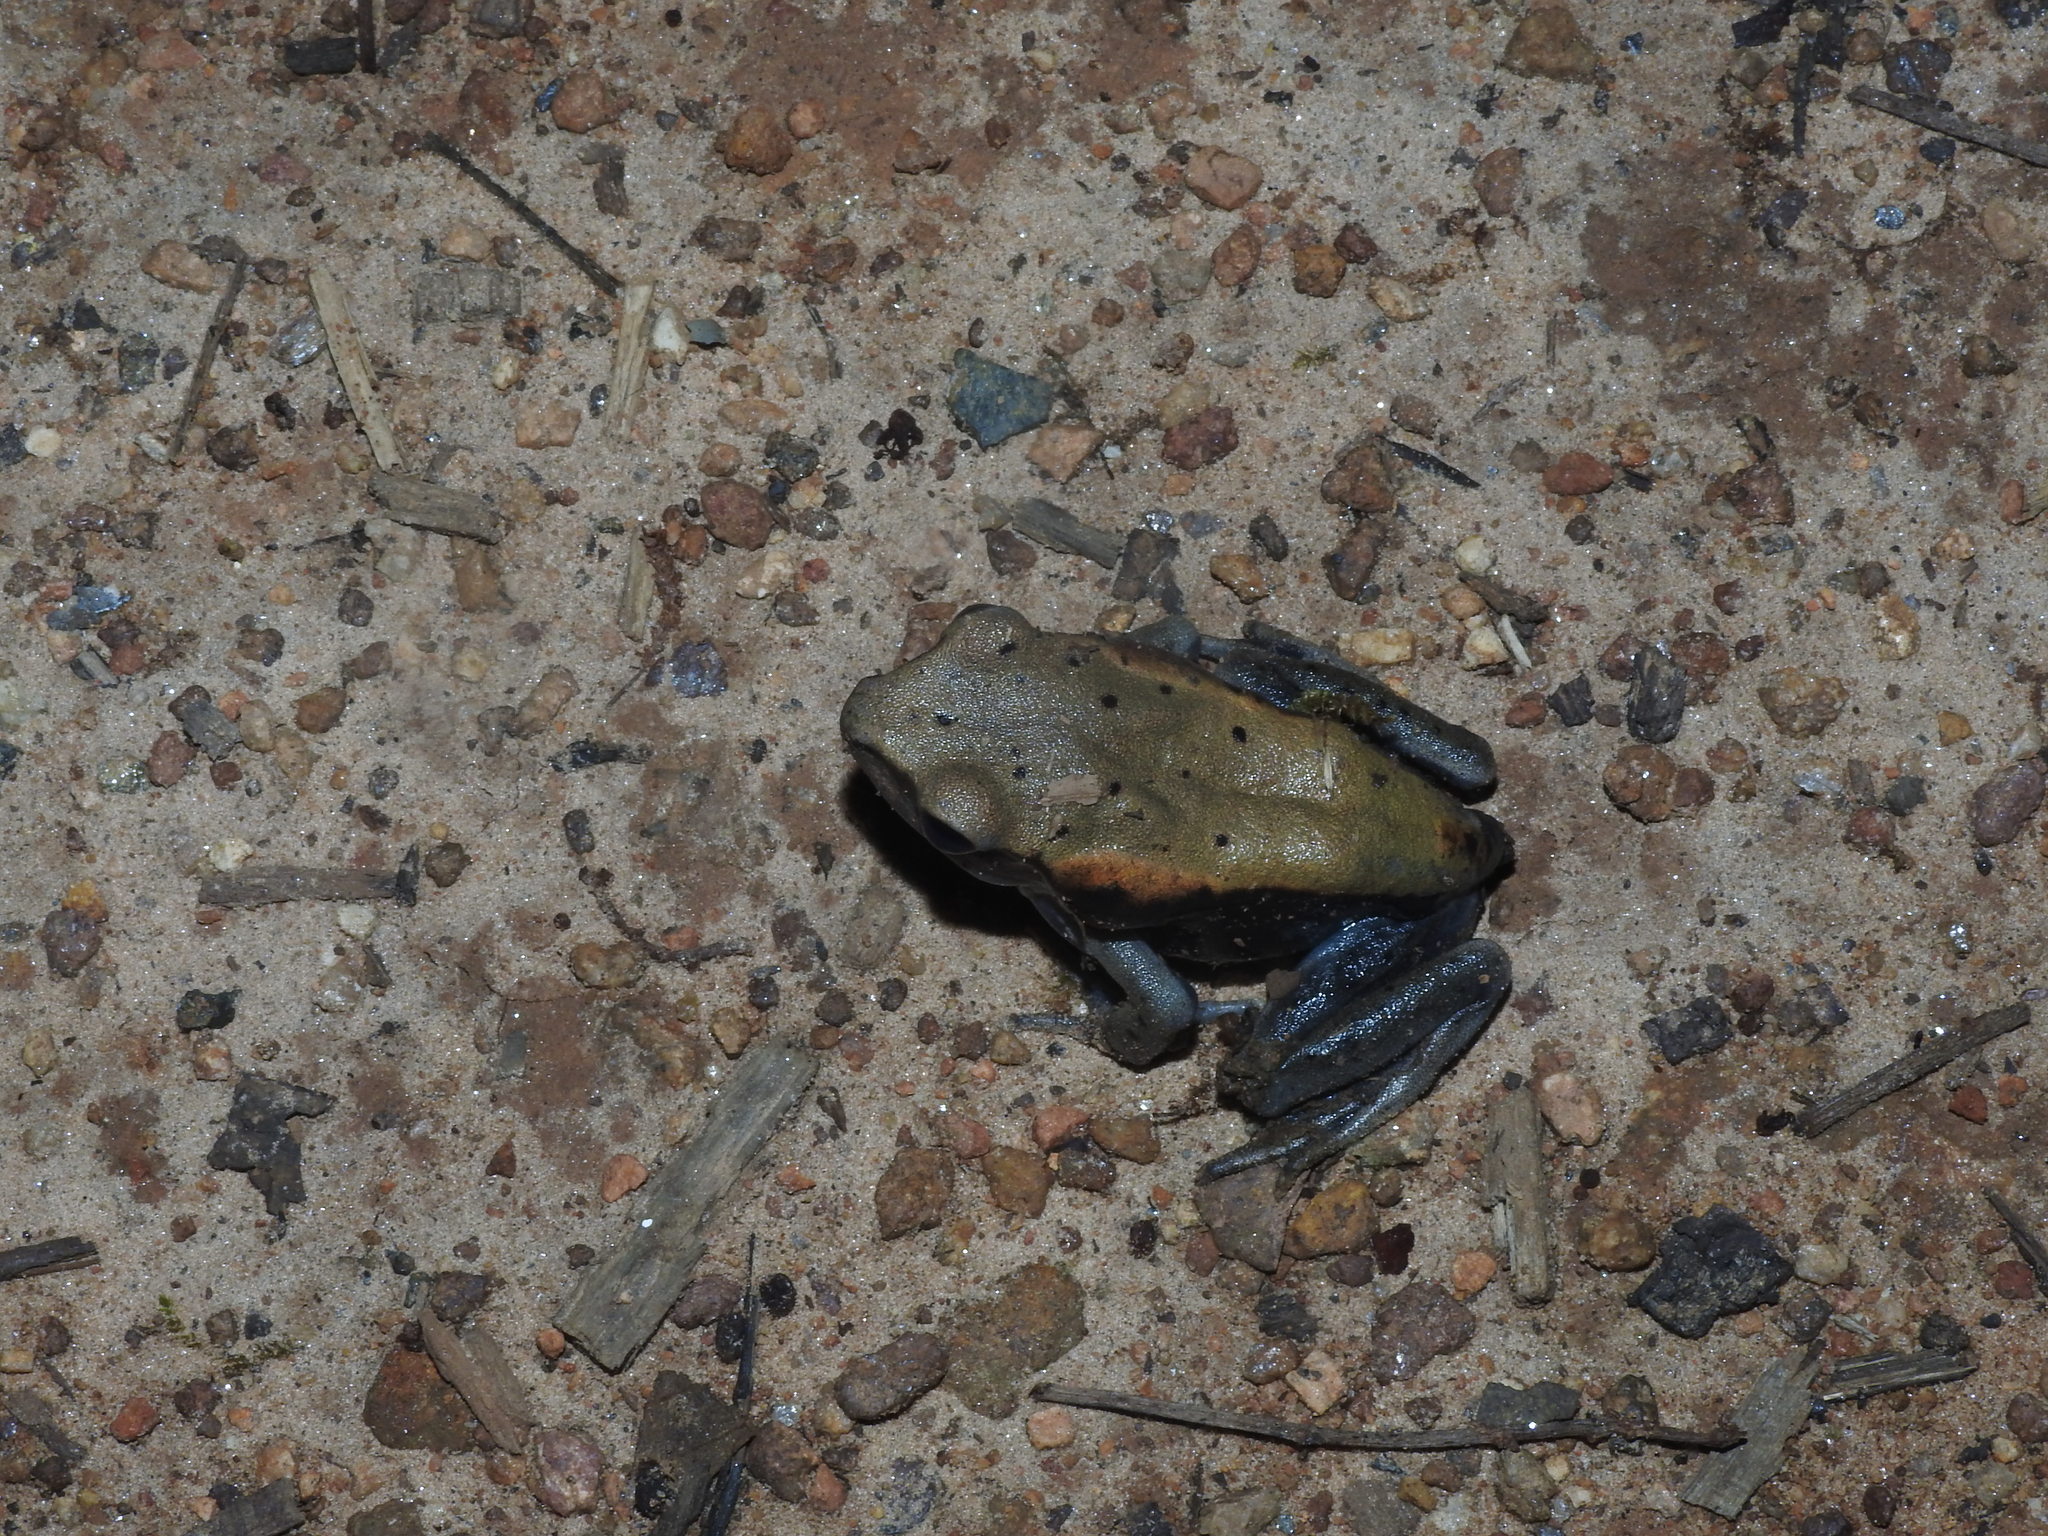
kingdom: Animalia
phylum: Chordata
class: Amphibia
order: Anura
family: Ranidae
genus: Clinotarsus
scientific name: Clinotarsus curtipes
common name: Bicoloured frog
